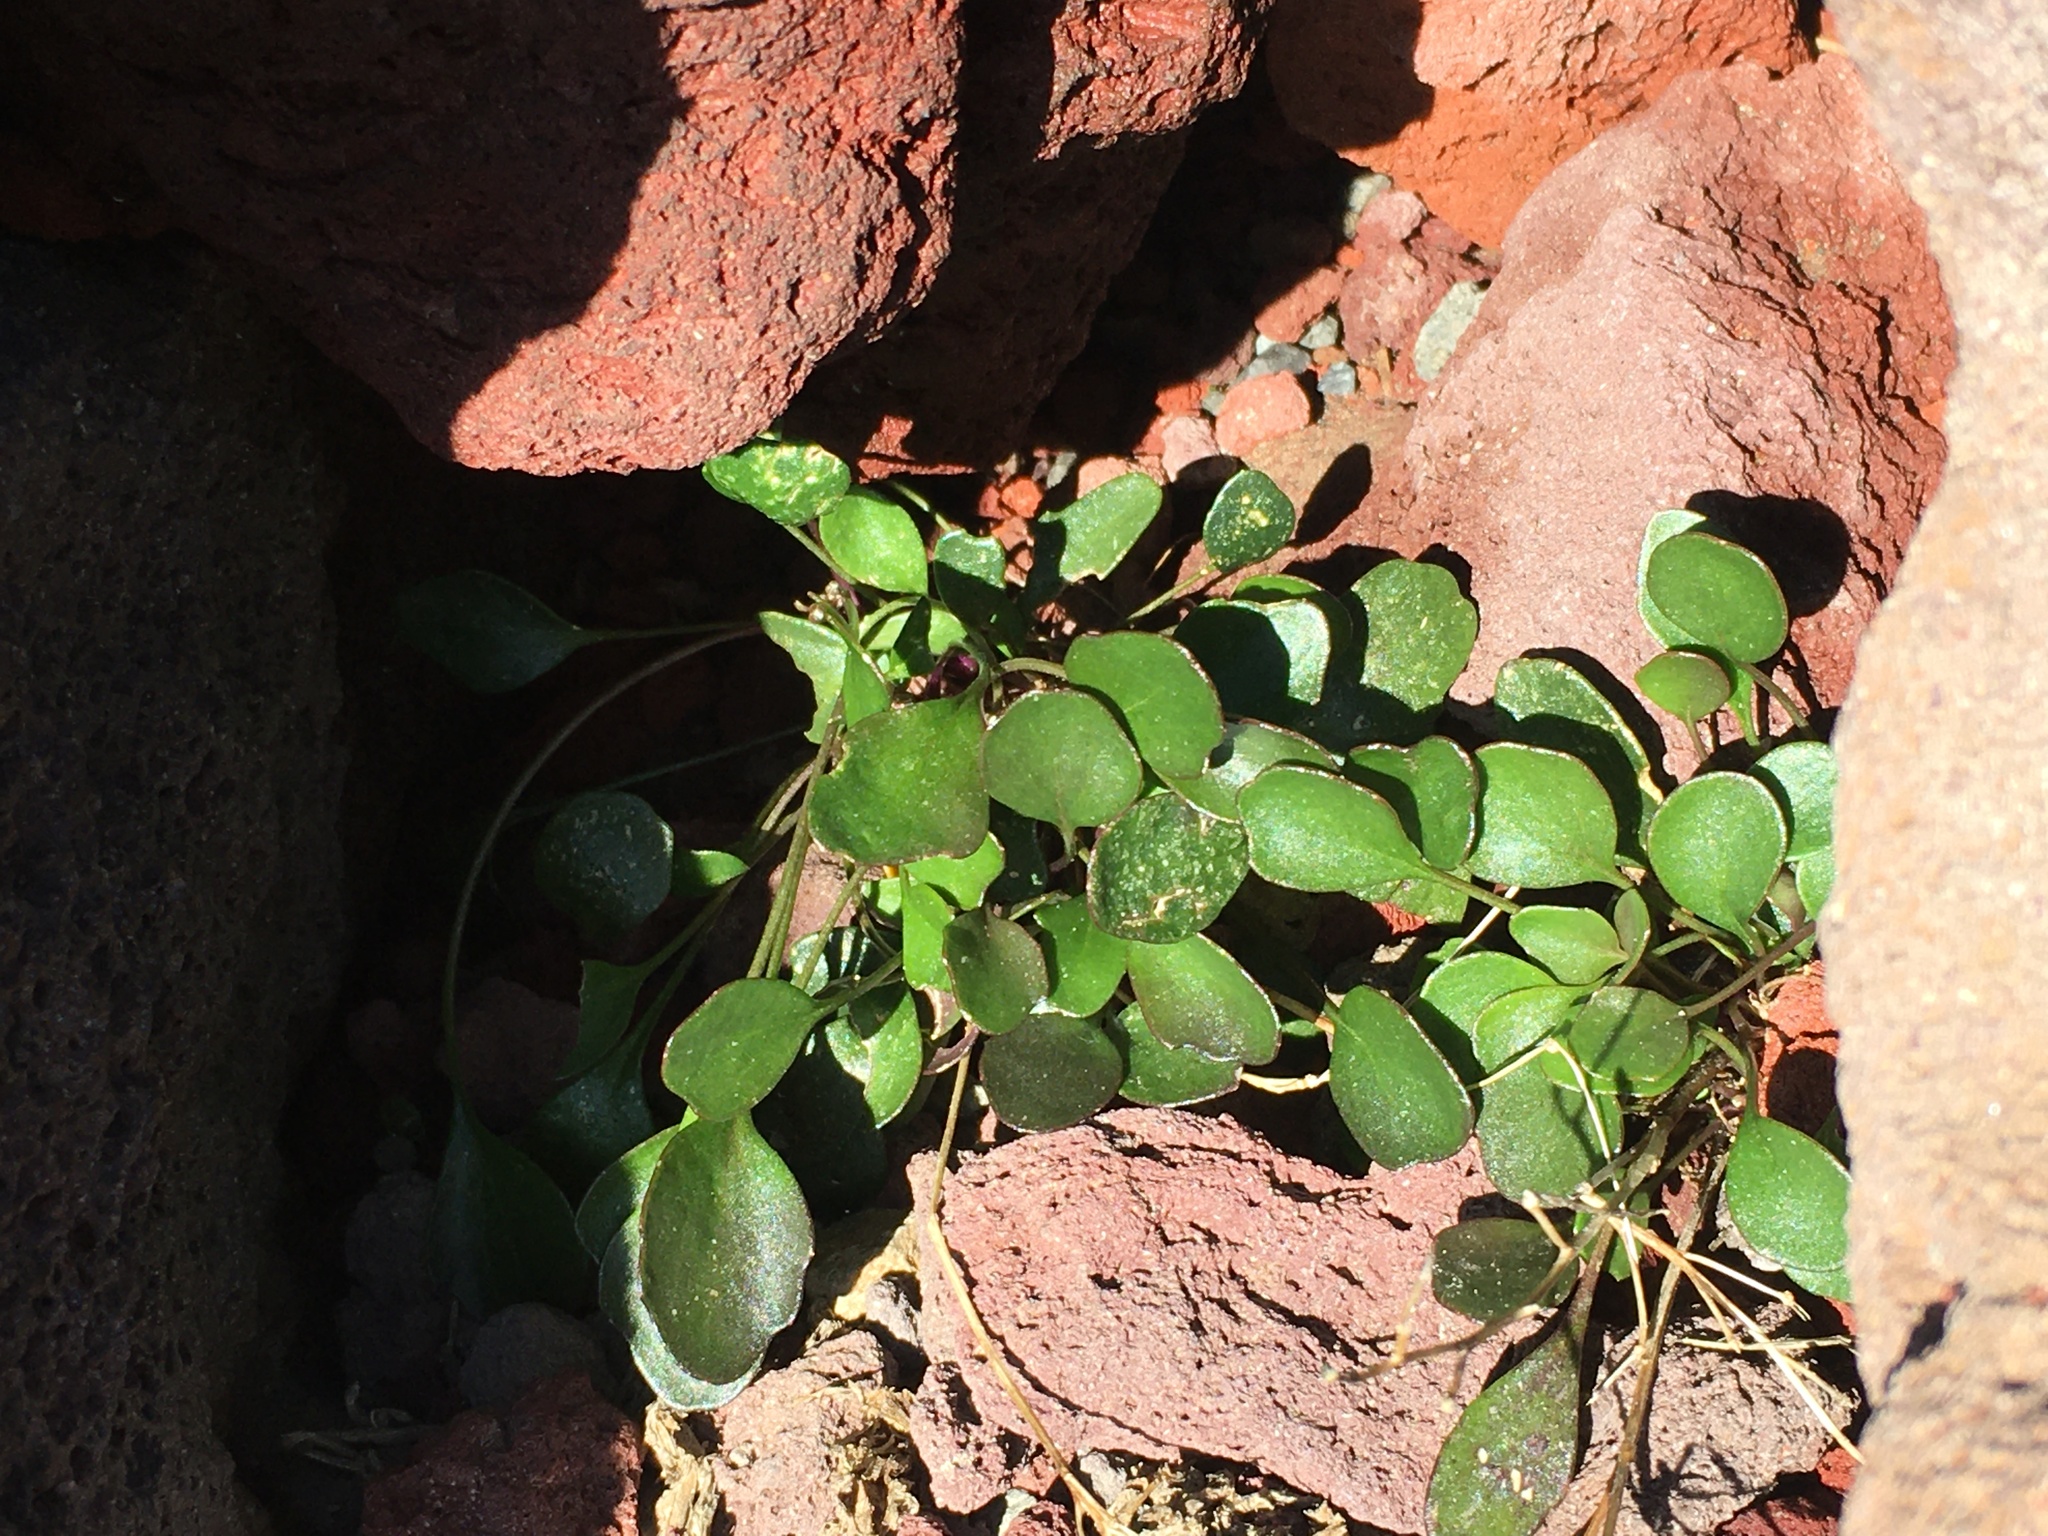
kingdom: Plantae
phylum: Tracheophyta
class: Magnoliopsida
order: Brassicales
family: Brassicaceae
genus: Cardamine
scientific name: Cardamine bellidifolia
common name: Alpine bittercress
